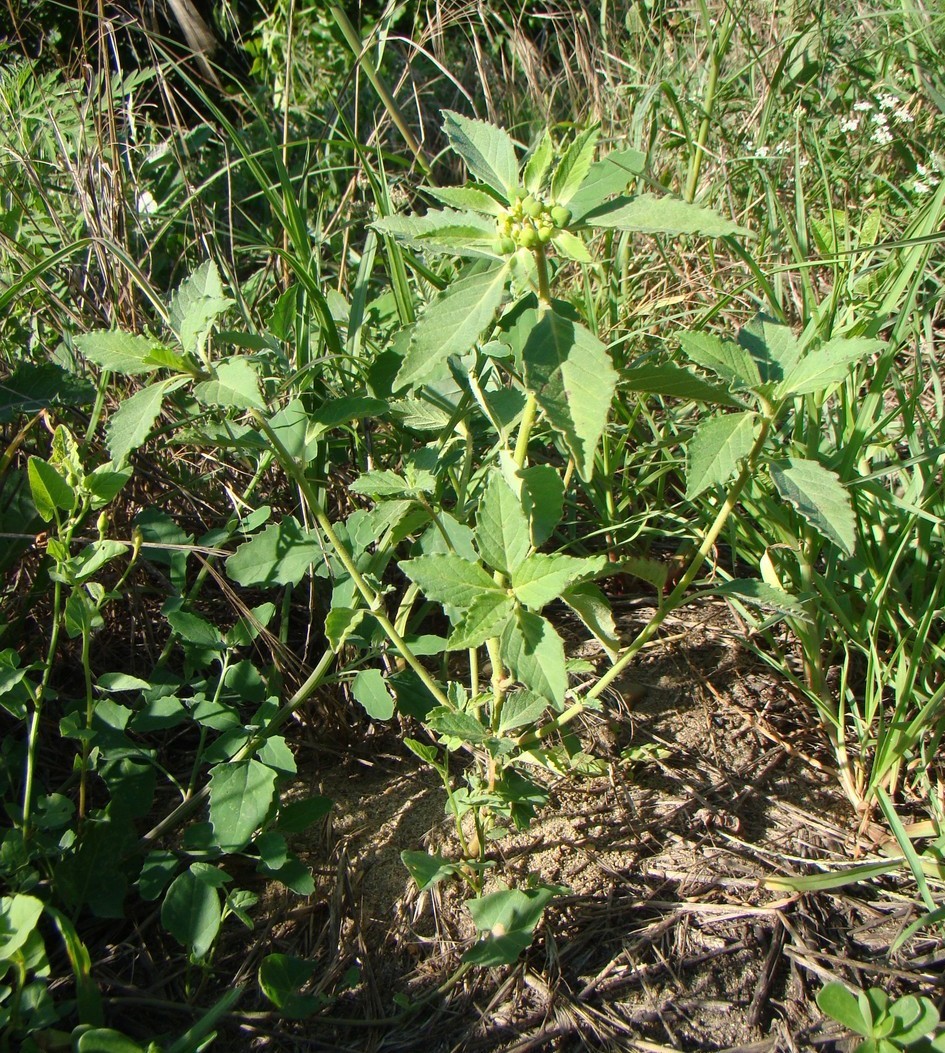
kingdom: Plantae
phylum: Tracheophyta
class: Magnoliopsida
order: Malpighiales
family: Euphorbiaceae
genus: Euphorbia
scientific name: Euphorbia davidii
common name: David's spurge
